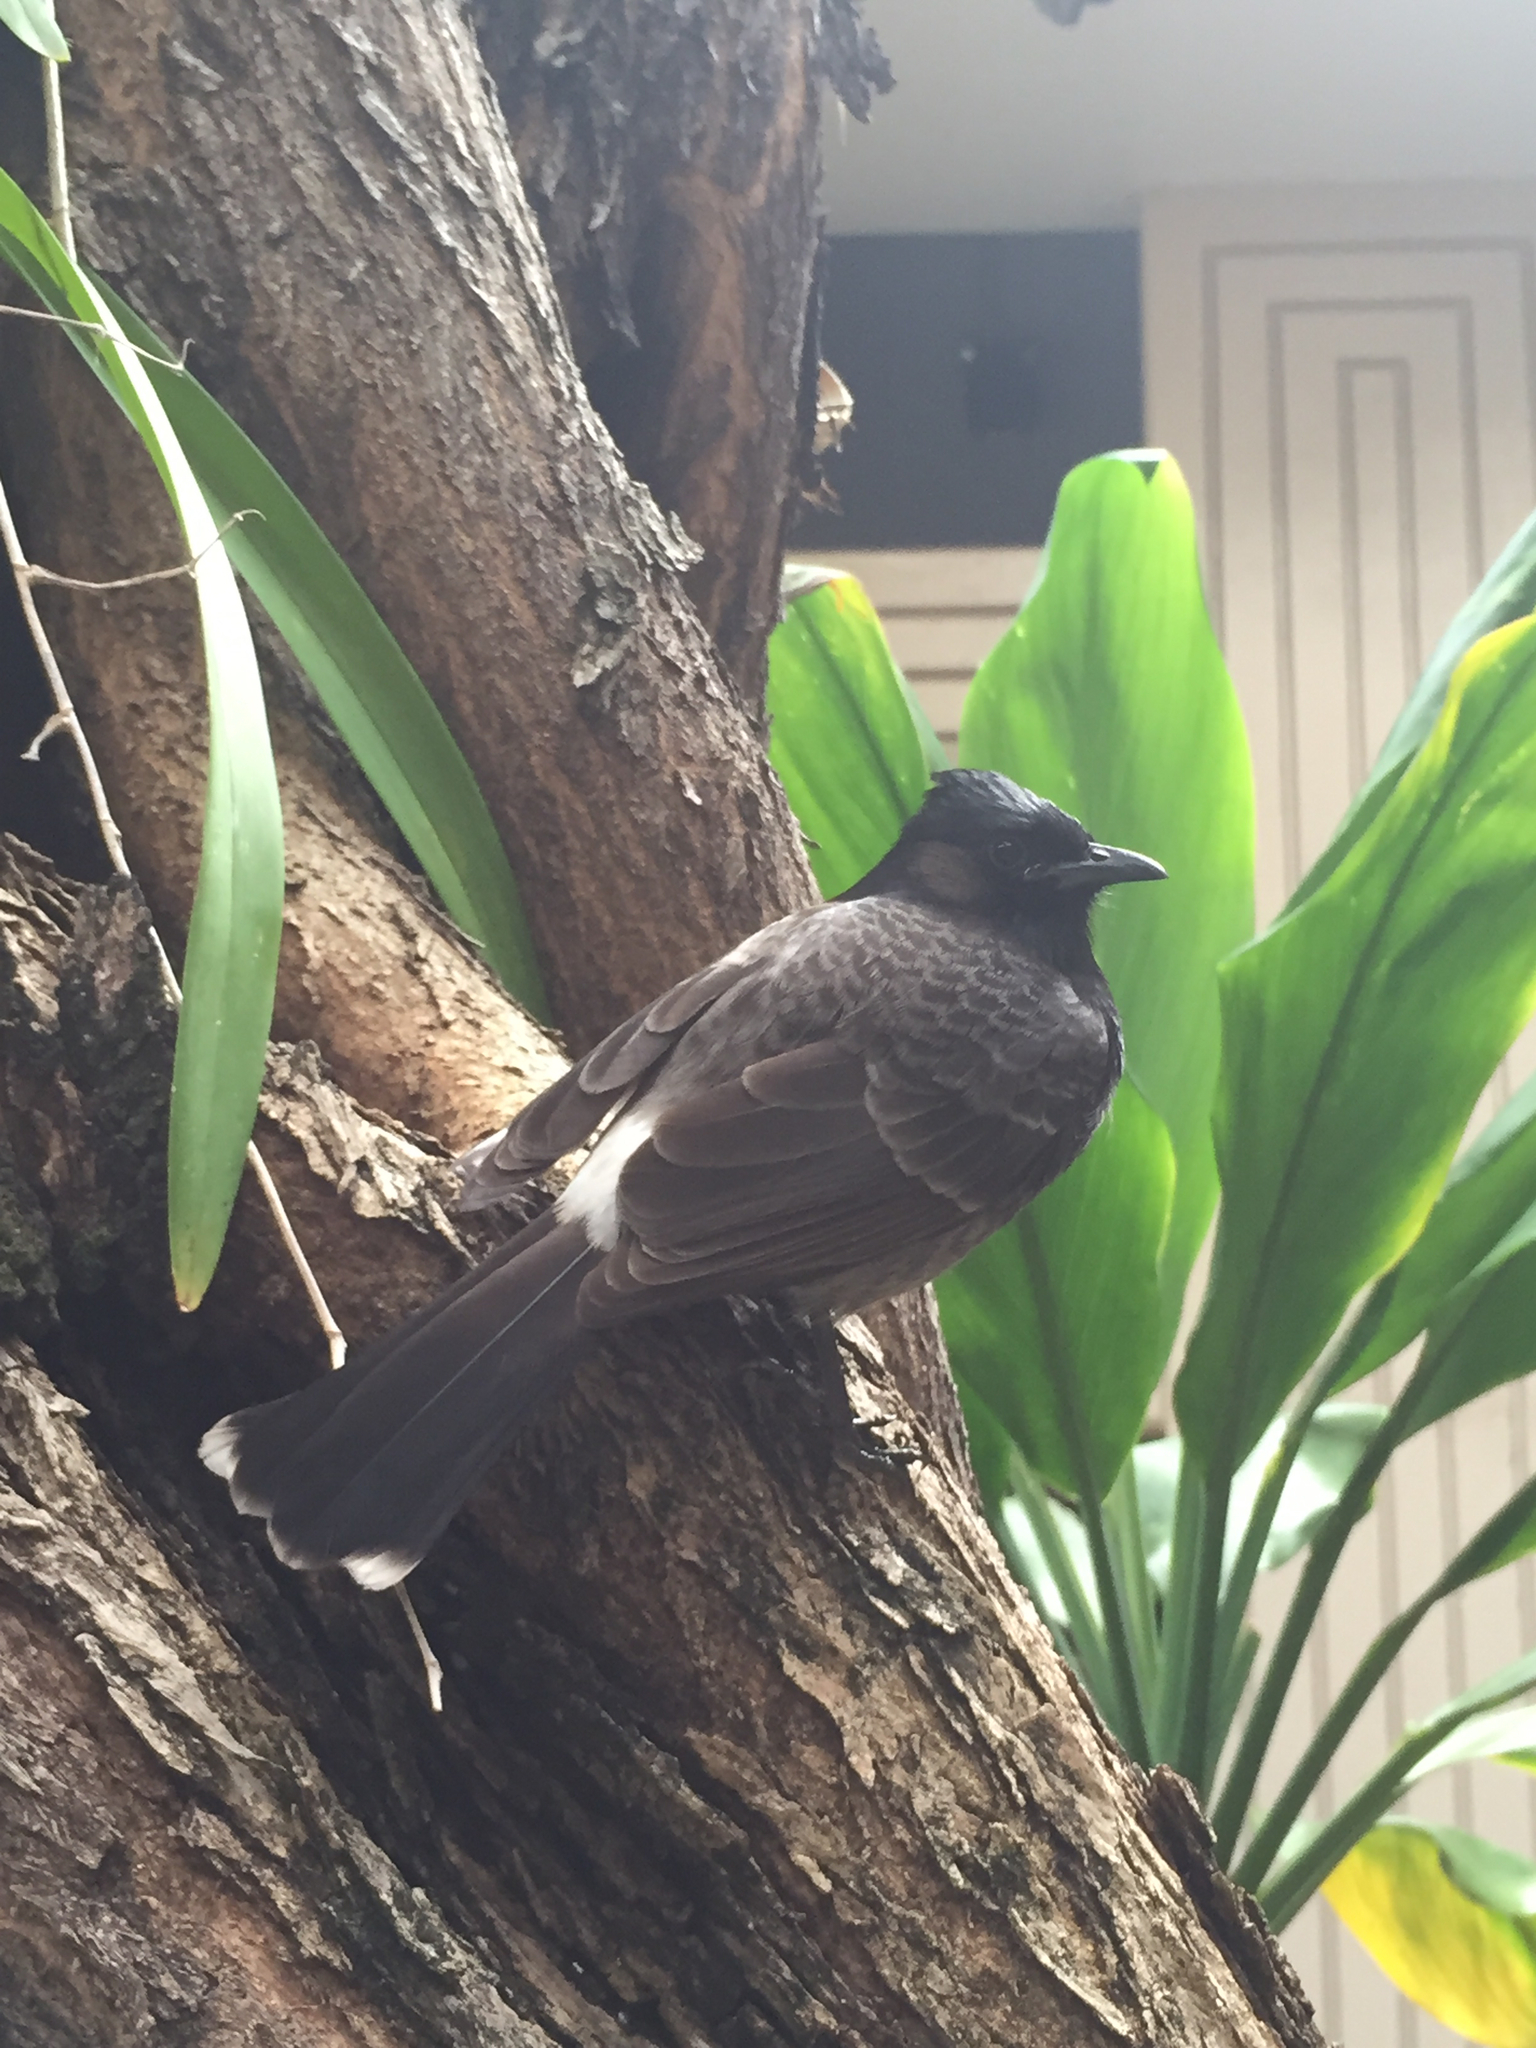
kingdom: Animalia
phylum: Chordata
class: Aves
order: Passeriformes
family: Pycnonotidae
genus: Pycnonotus
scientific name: Pycnonotus cafer
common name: Red-vented bulbul
